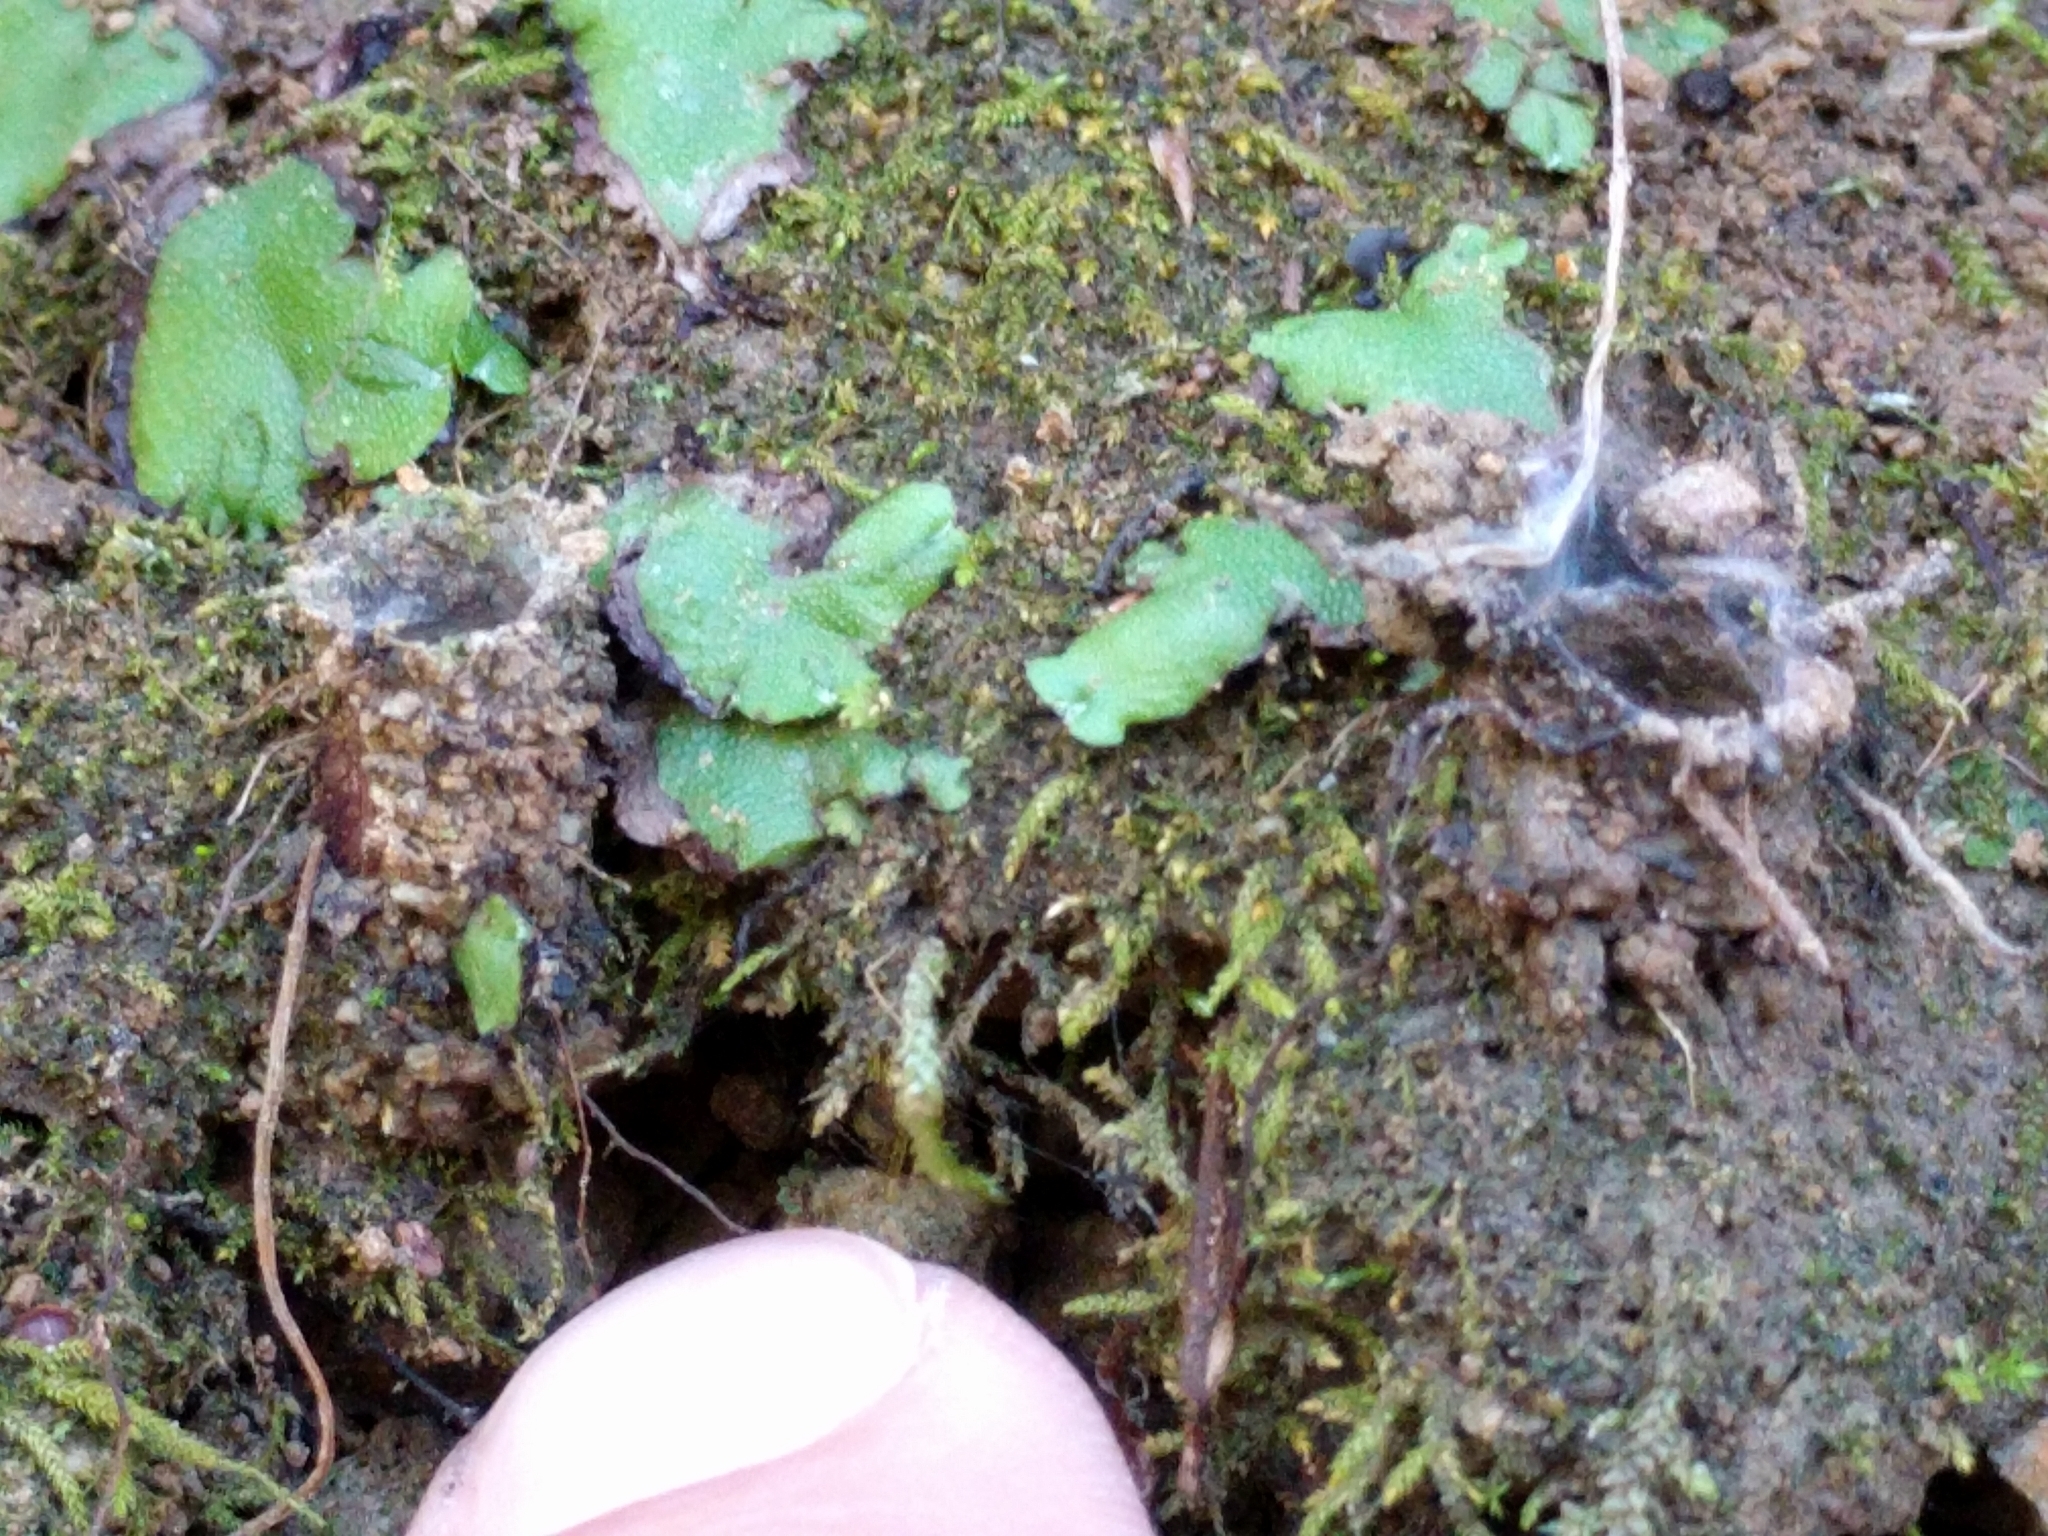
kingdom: Animalia
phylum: Arthropoda
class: Arachnida
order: Araneae
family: Antrodiaetidae
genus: Atypoides
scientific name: Atypoides riversi
